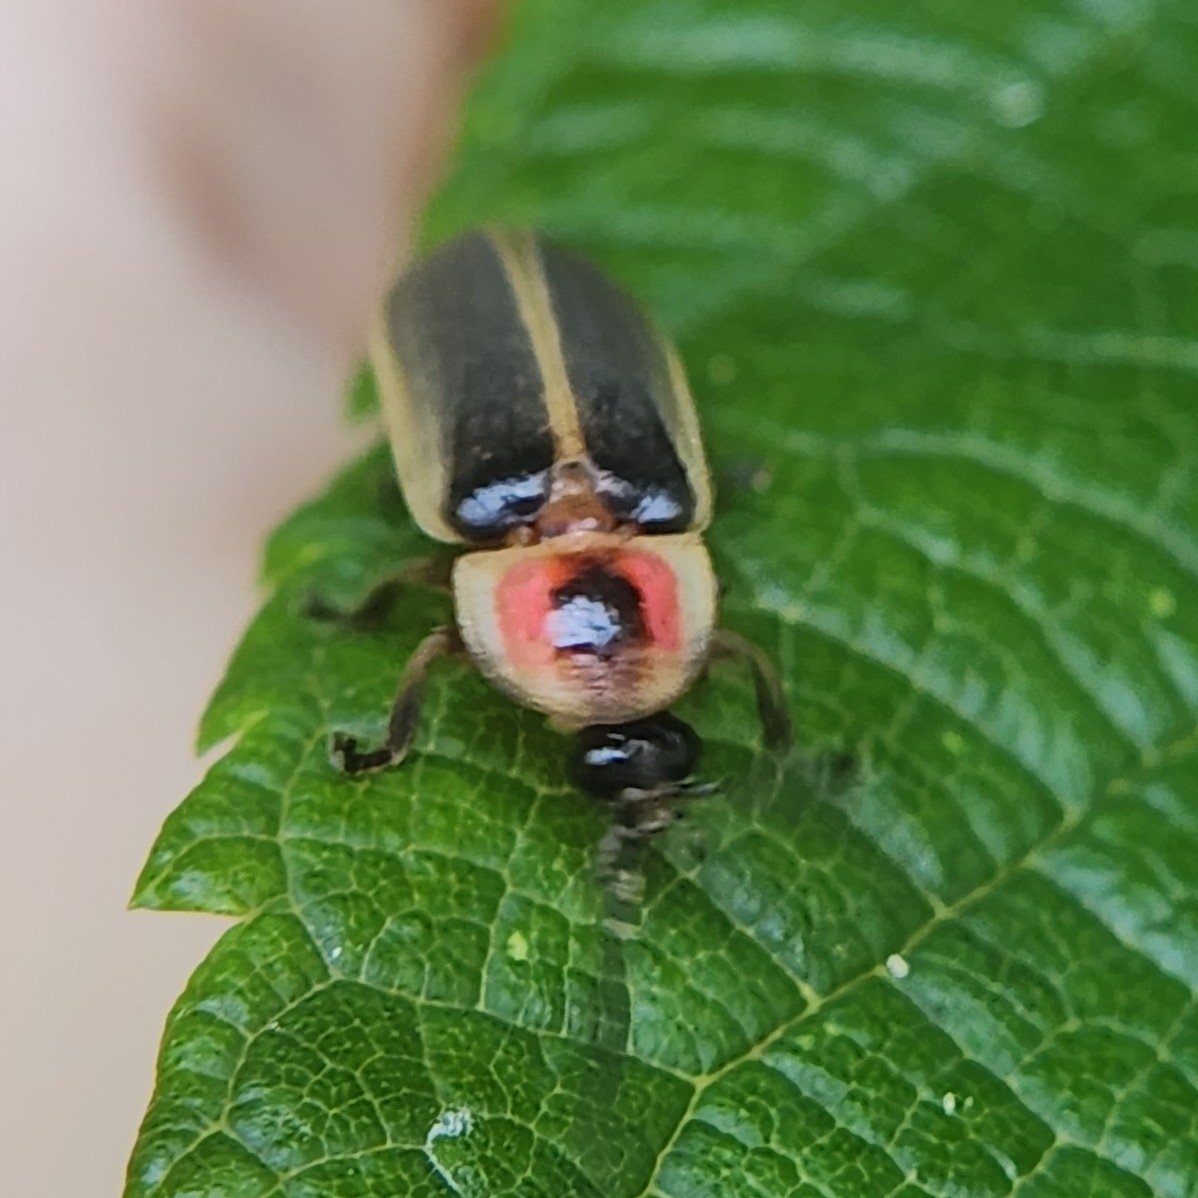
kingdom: Animalia
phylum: Arthropoda
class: Insecta
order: Coleoptera
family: Lampyridae
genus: Photinus
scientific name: Photinus pyralis
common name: Big dipper firefly
